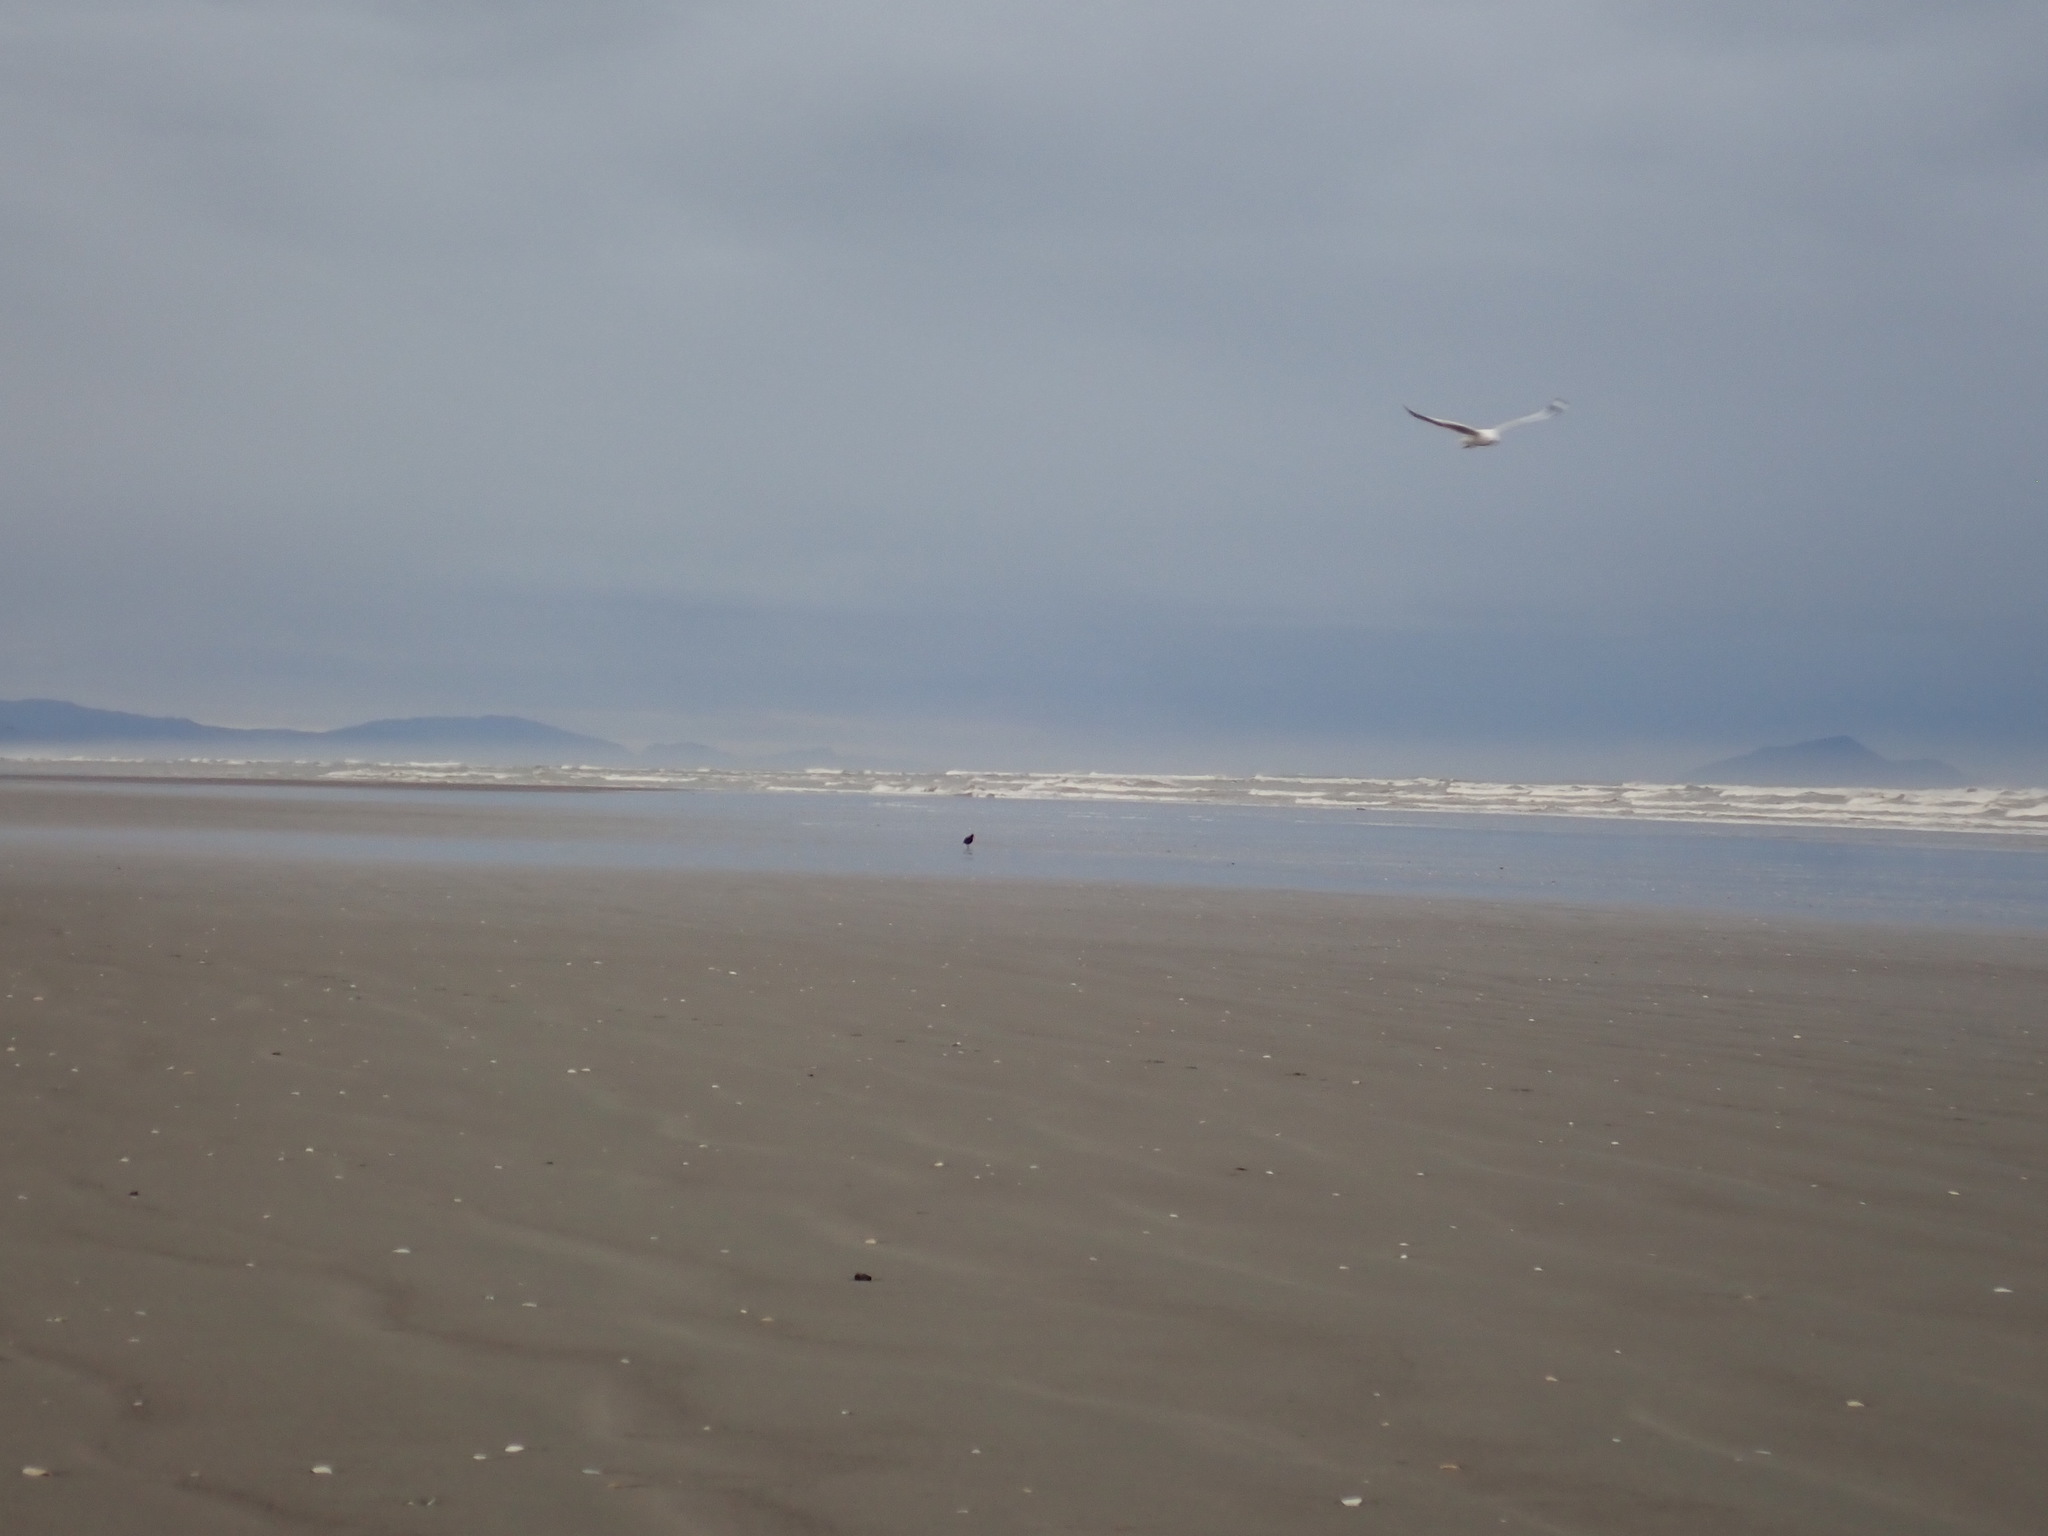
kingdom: Animalia
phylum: Chordata
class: Aves
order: Charadriiformes
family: Haematopodidae
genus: Haematopus
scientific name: Haematopus unicolor
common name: Variable oystercatcher
